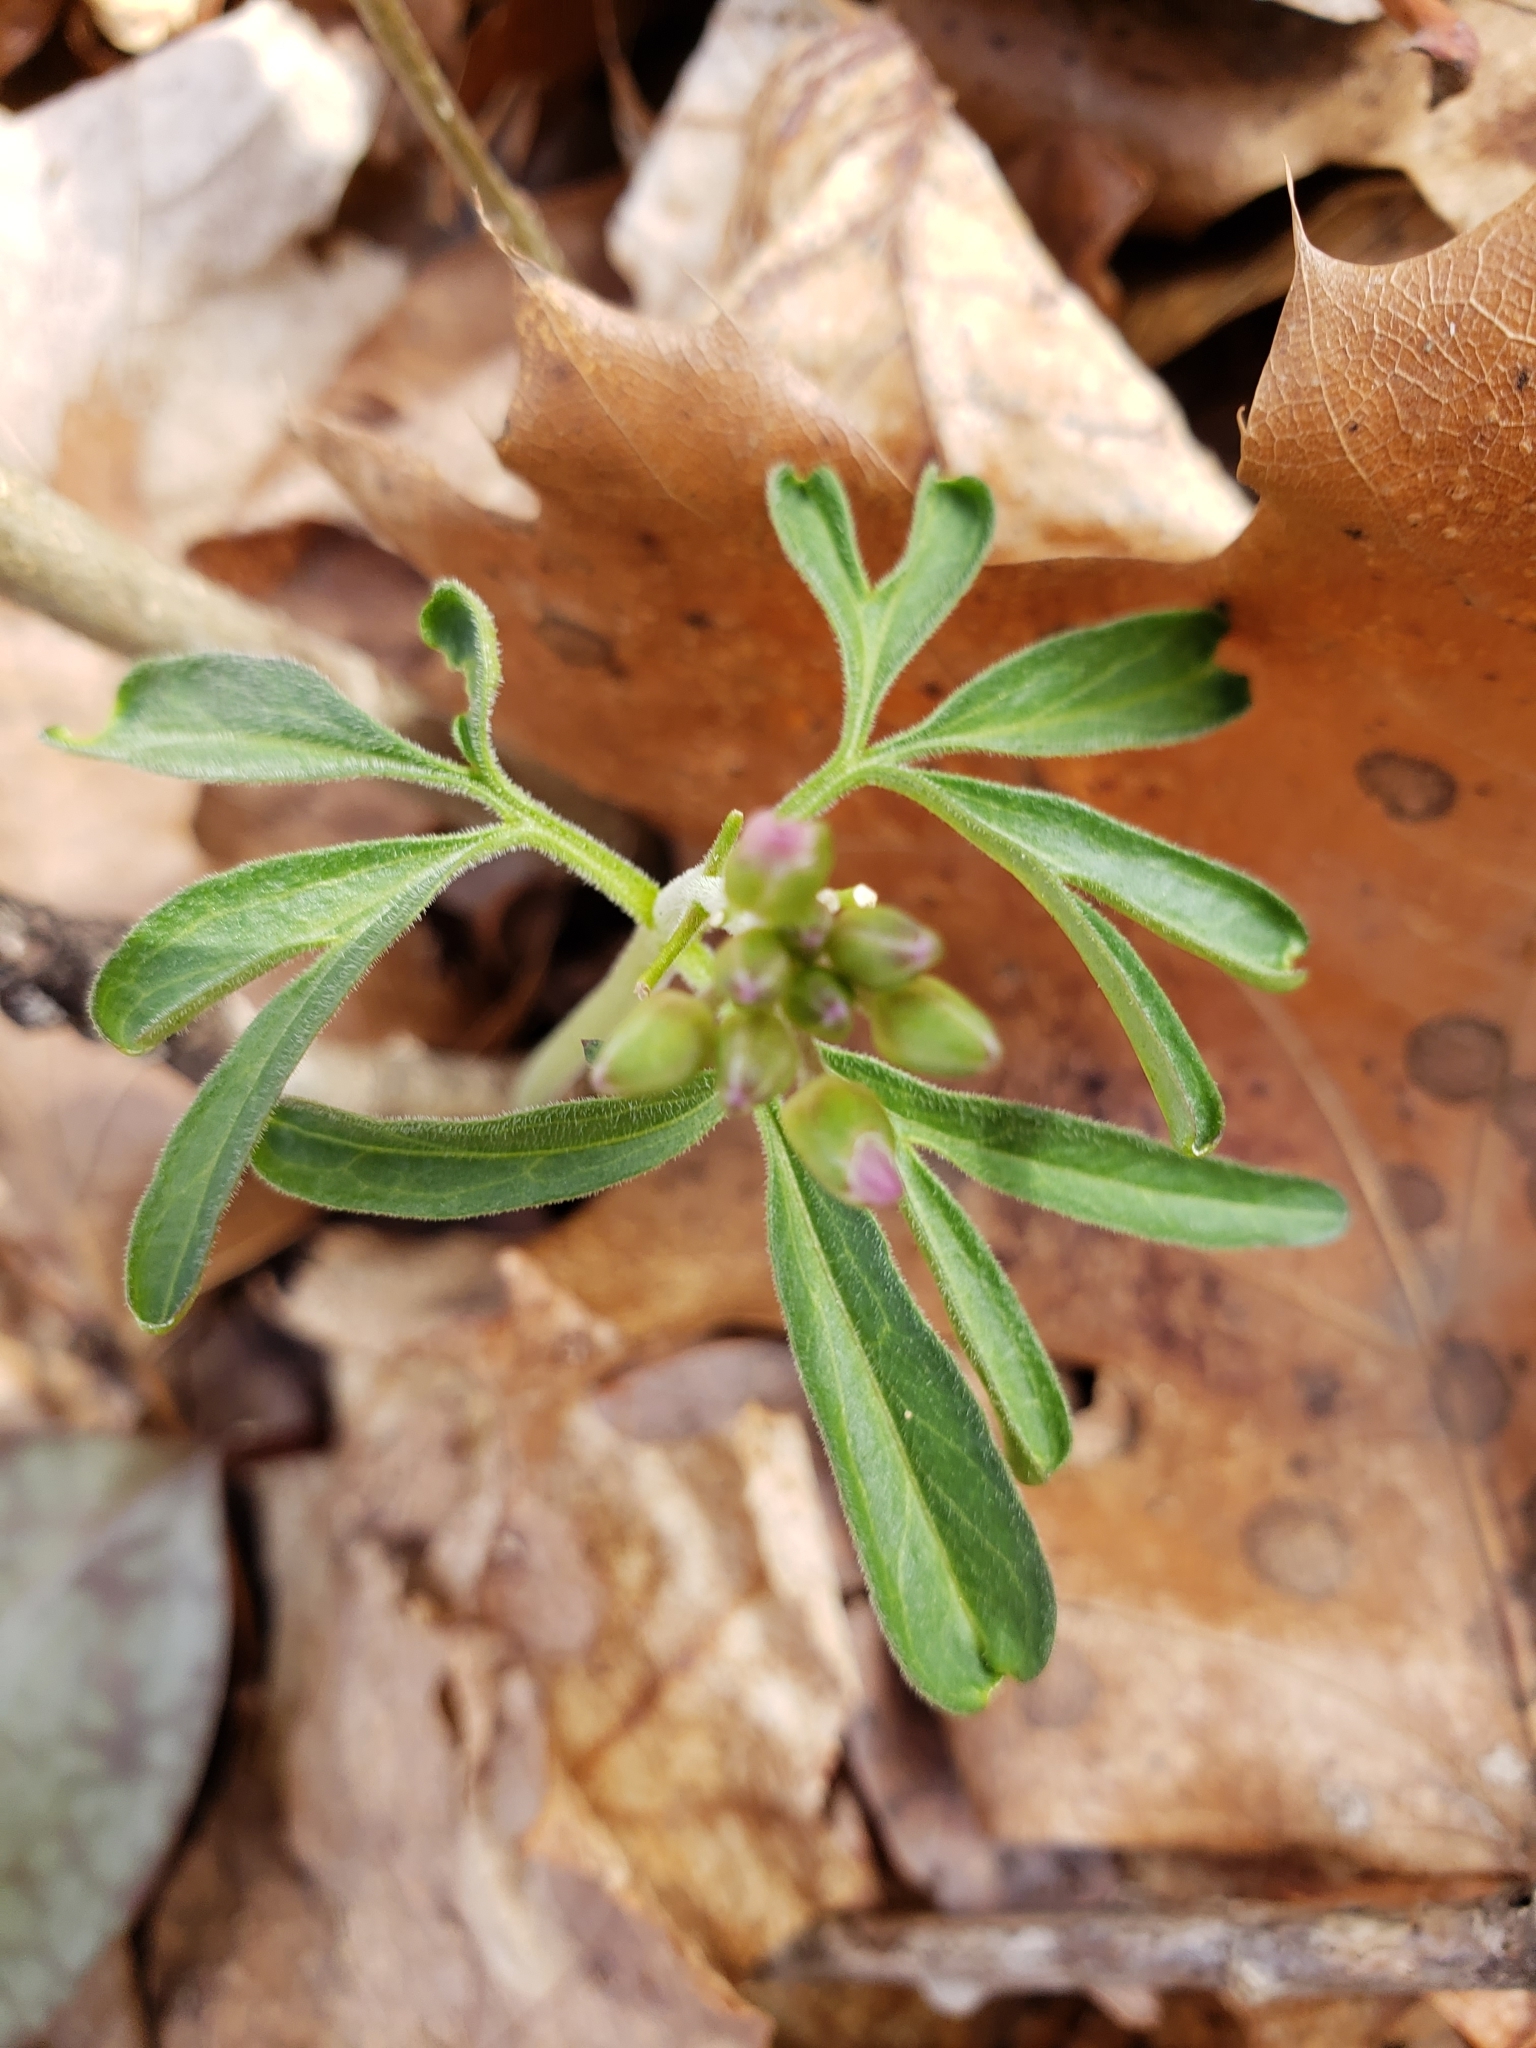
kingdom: Plantae
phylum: Tracheophyta
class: Magnoliopsida
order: Brassicales
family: Brassicaceae
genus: Cardamine
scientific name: Cardamine concatenata
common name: Cut-leaf toothcup
